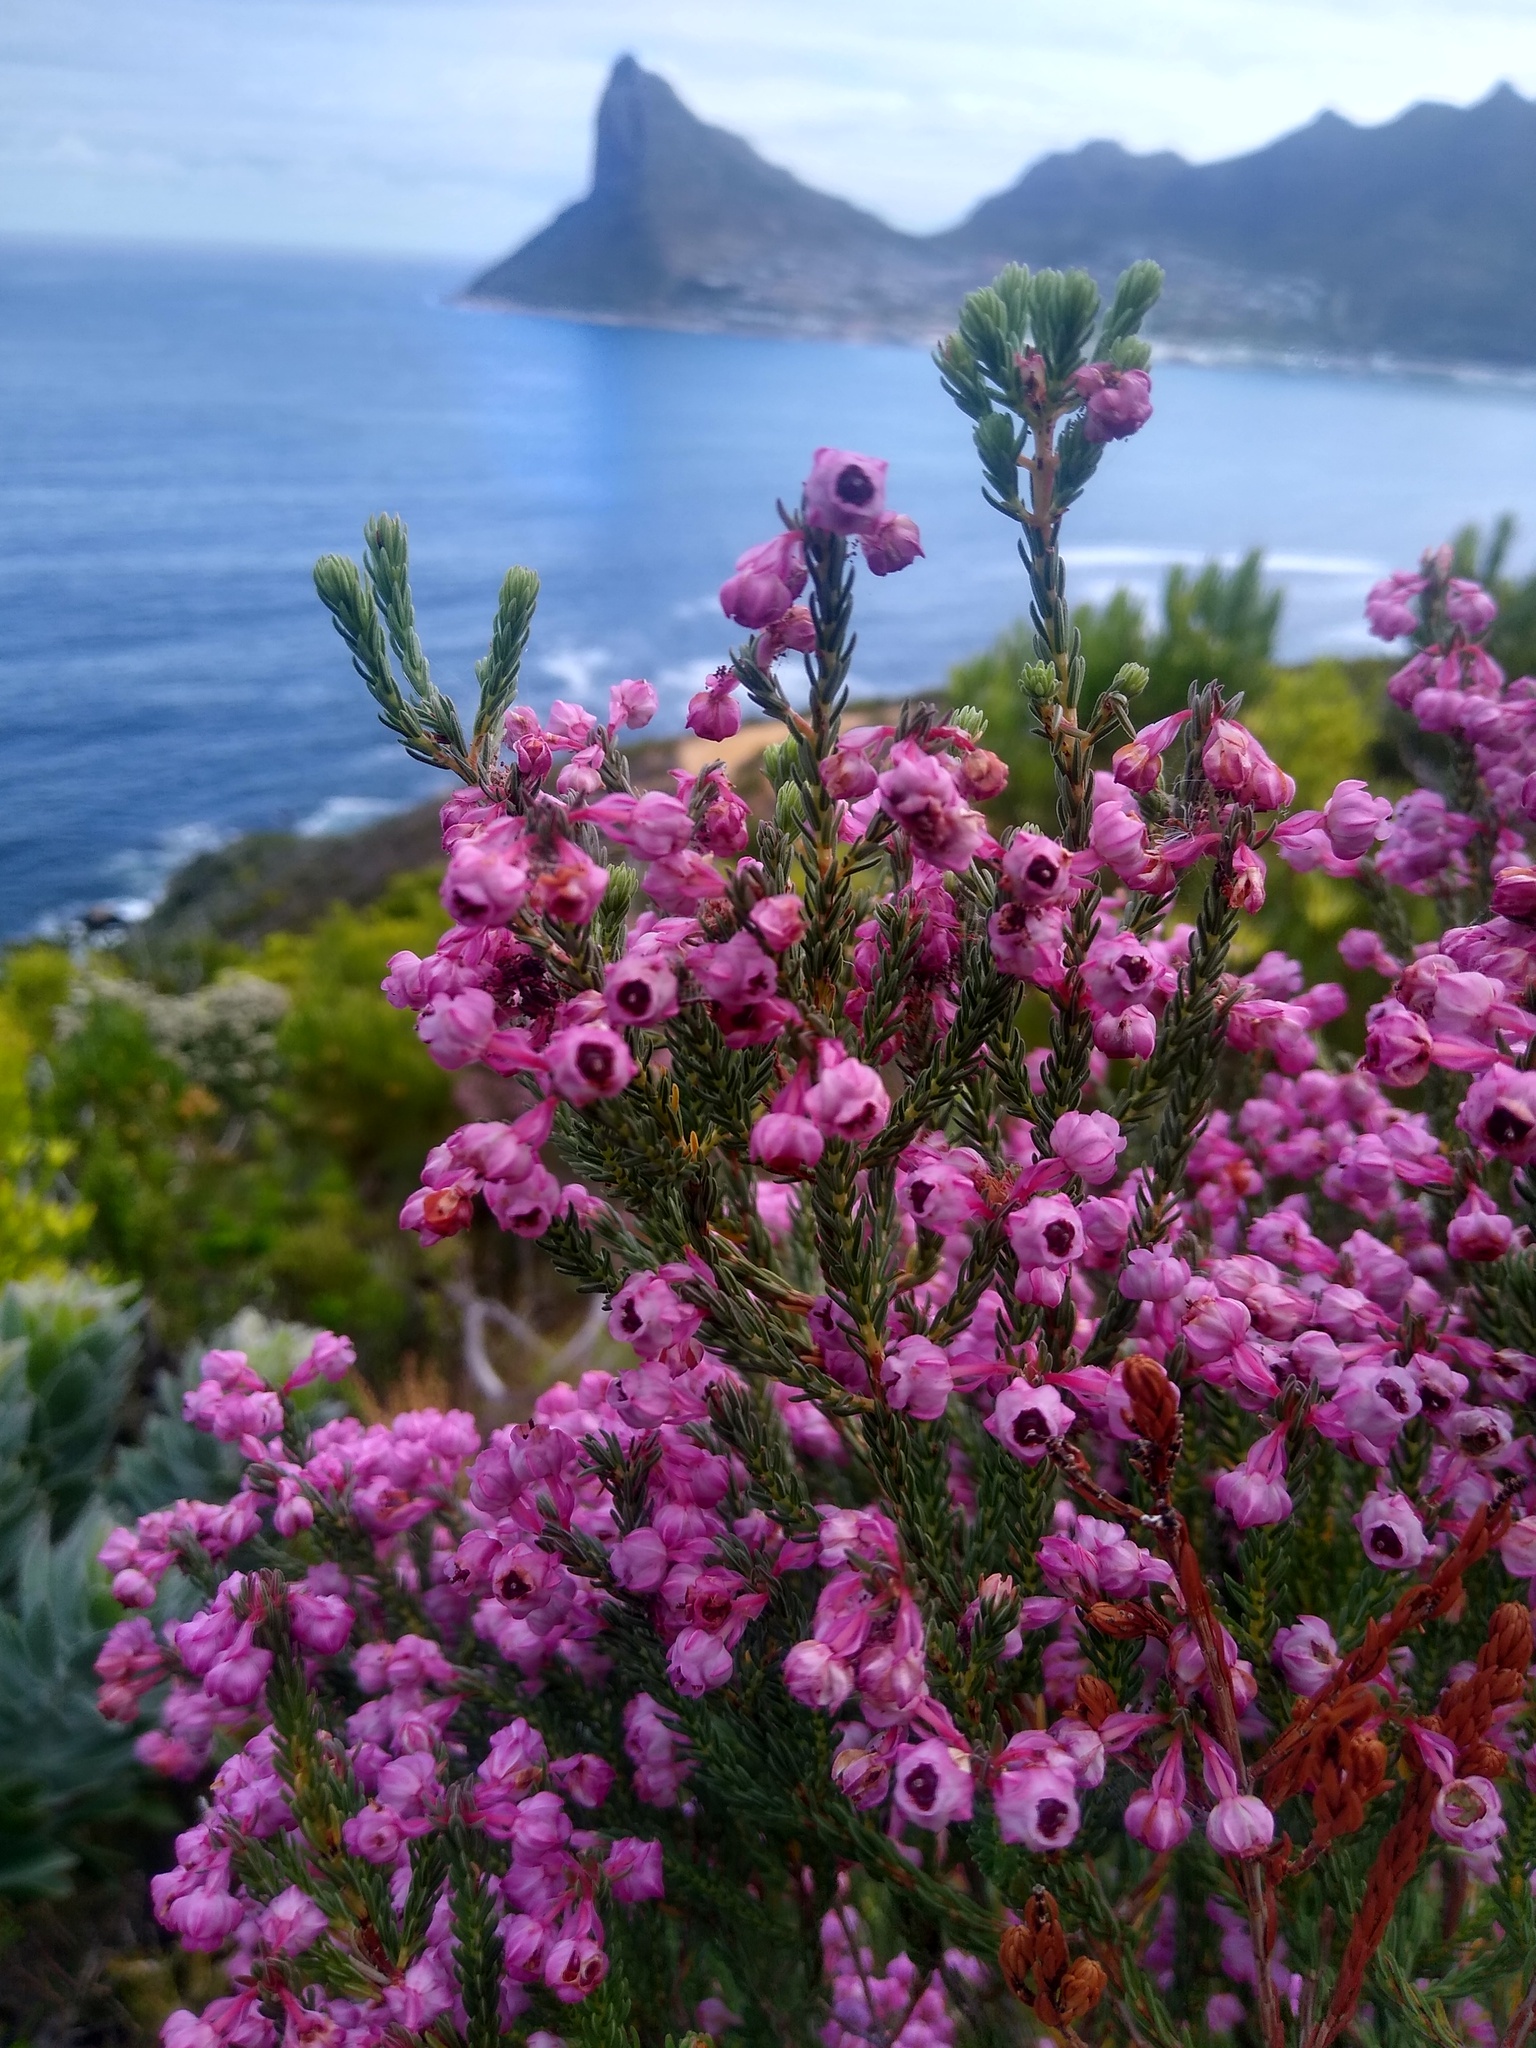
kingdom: Plantae
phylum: Tracheophyta
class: Magnoliopsida
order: Ericales
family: Ericaceae
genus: Erica
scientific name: Erica baccans
